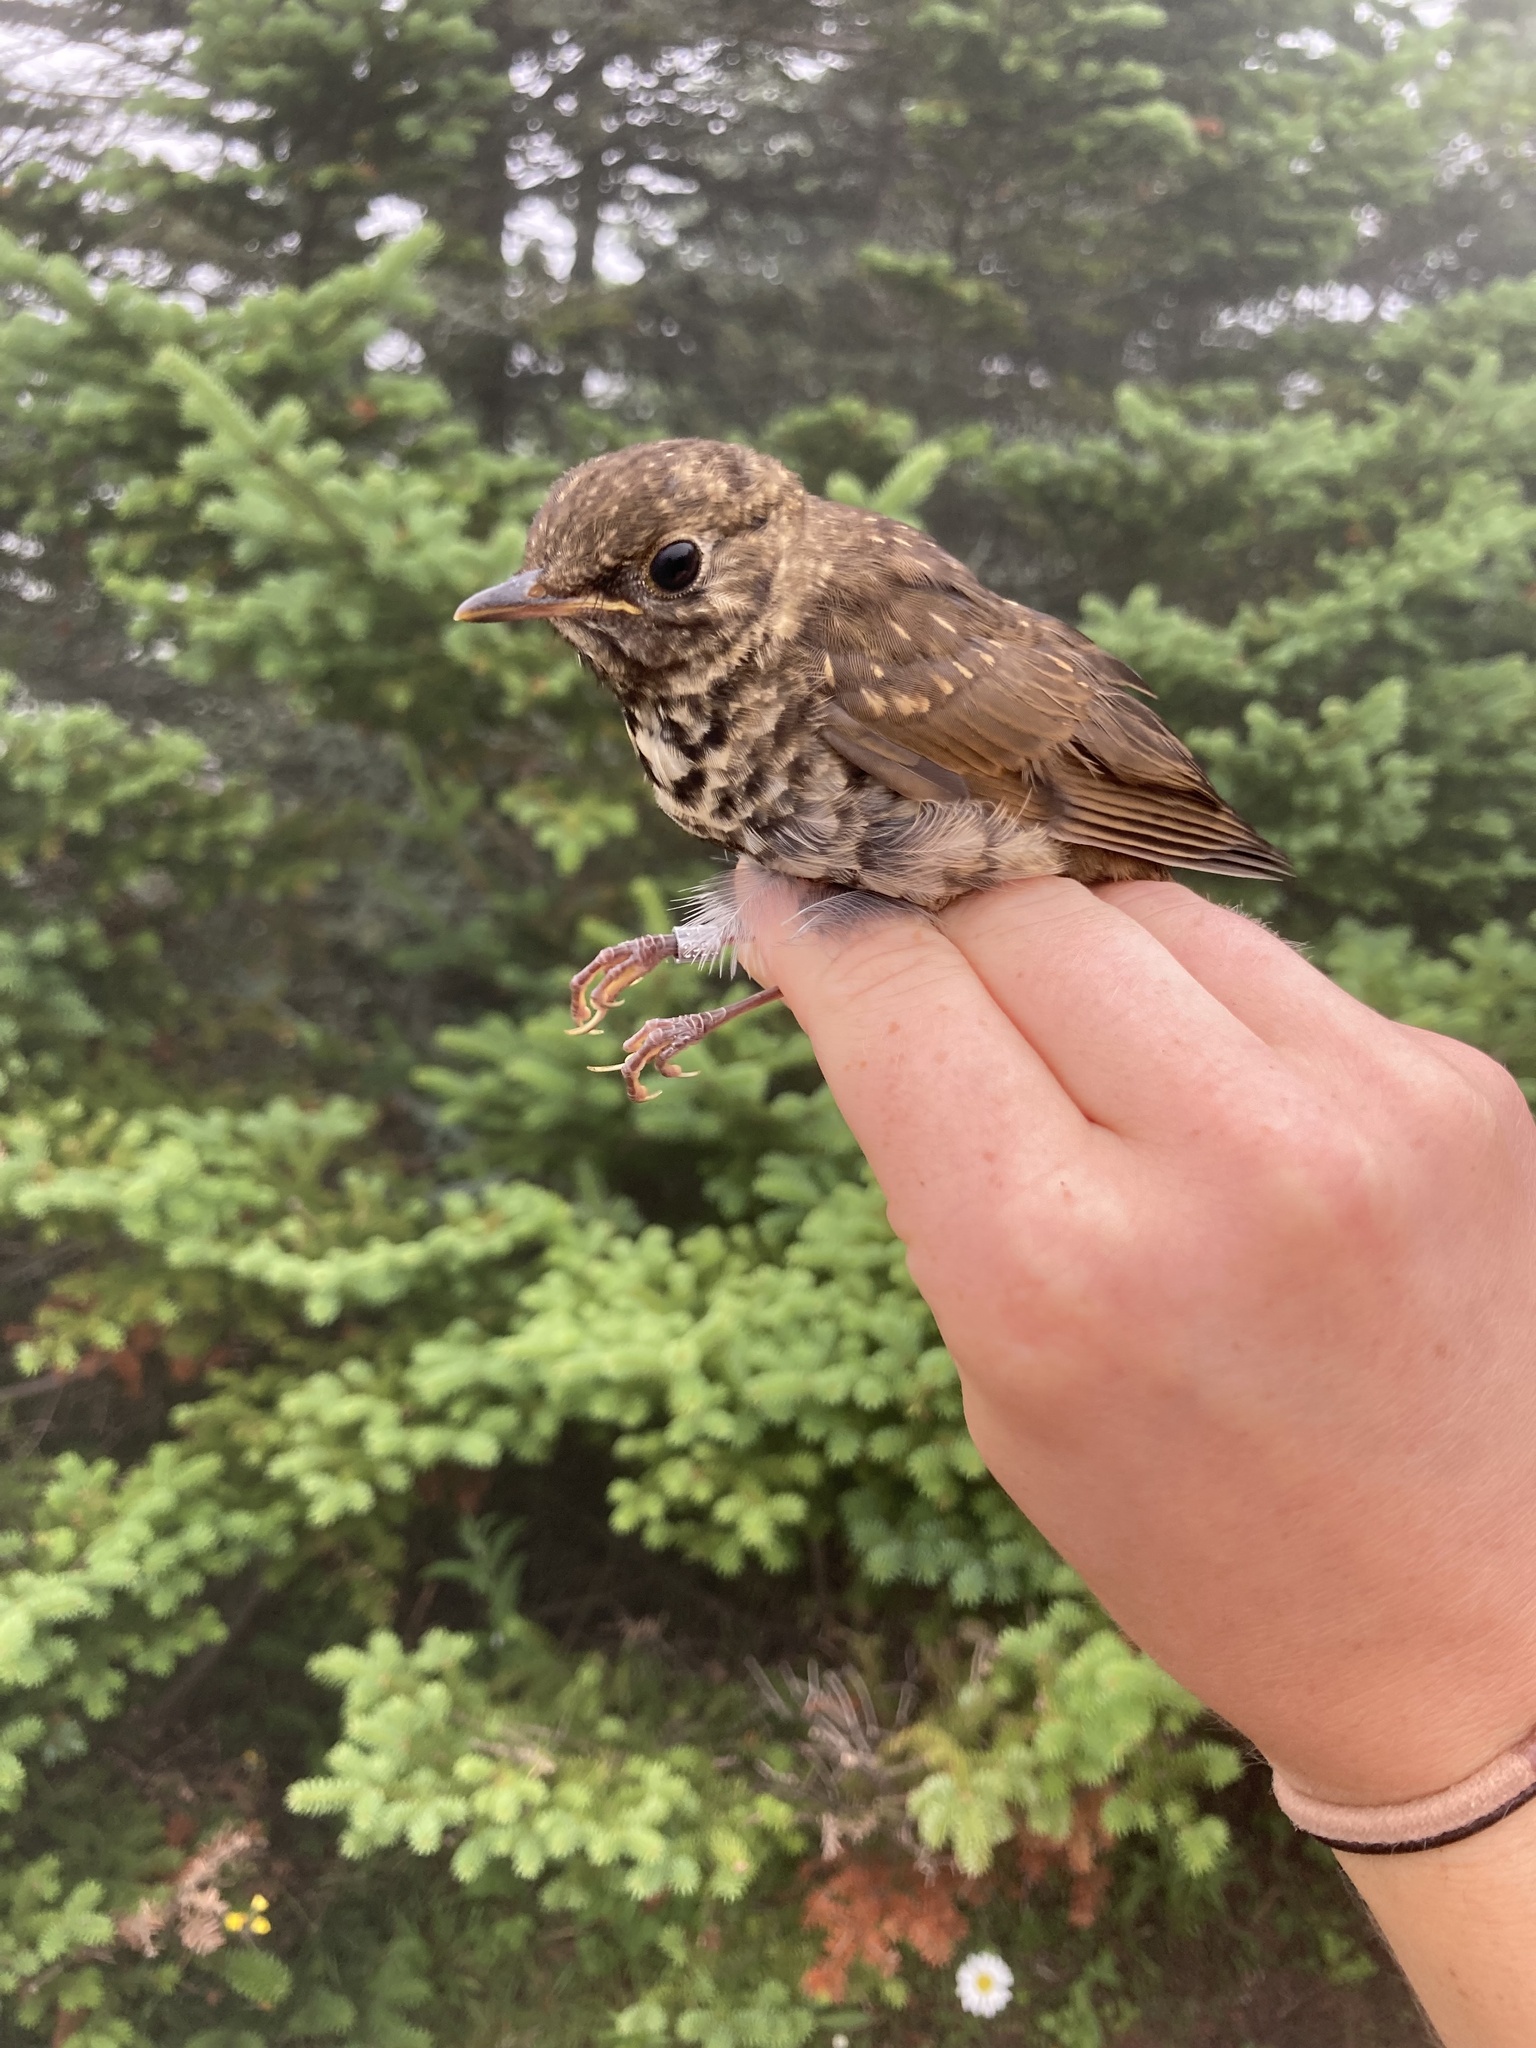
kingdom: Animalia
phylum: Chordata
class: Aves
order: Passeriformes
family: Turdidae
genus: Catharus
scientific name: Catharus bicknelli
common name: Bicknell's thrush
